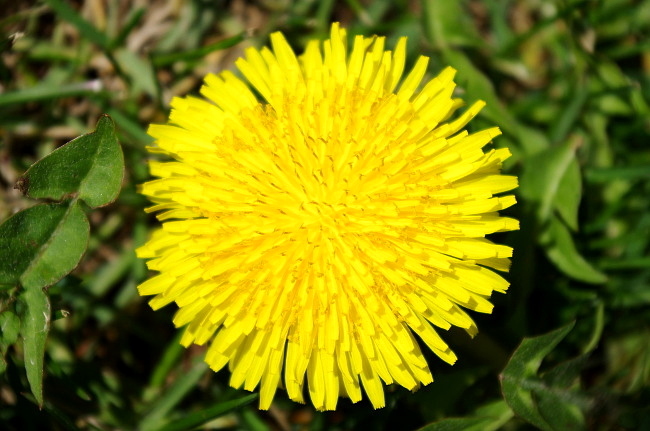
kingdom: Plantae
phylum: Tracheophyta
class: Magnoliopsida
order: Asterales
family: Asteraceae
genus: Taraxacum
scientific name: Taraxacum officinale
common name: Common dandelion
